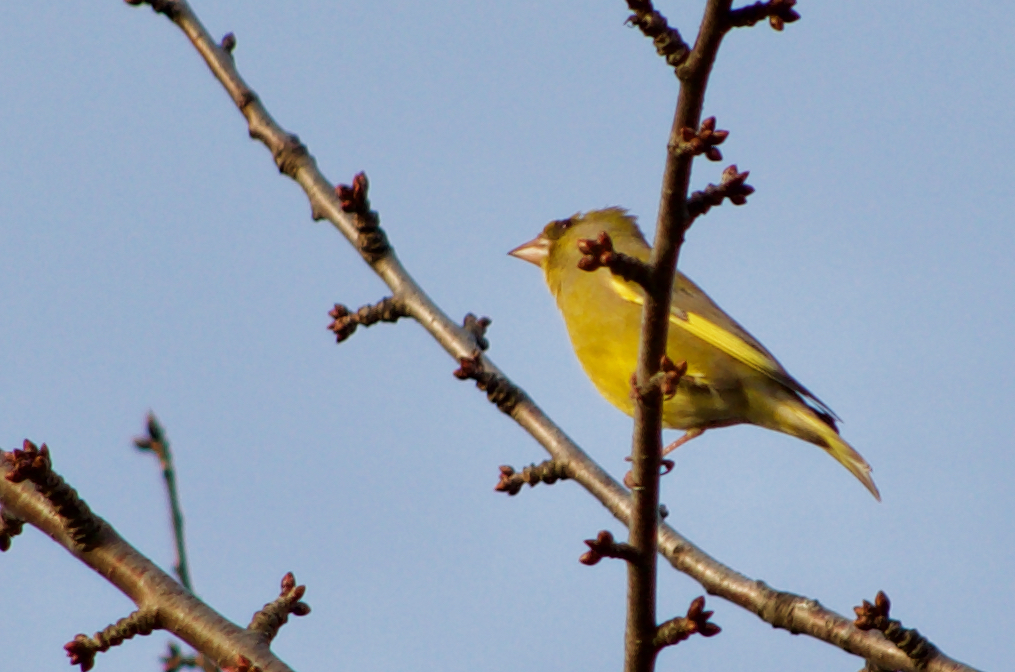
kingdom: Plantae
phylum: Tracheophyta
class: Liliopsida
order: Poales
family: Poaceae
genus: Chloris
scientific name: Chloris chloris
